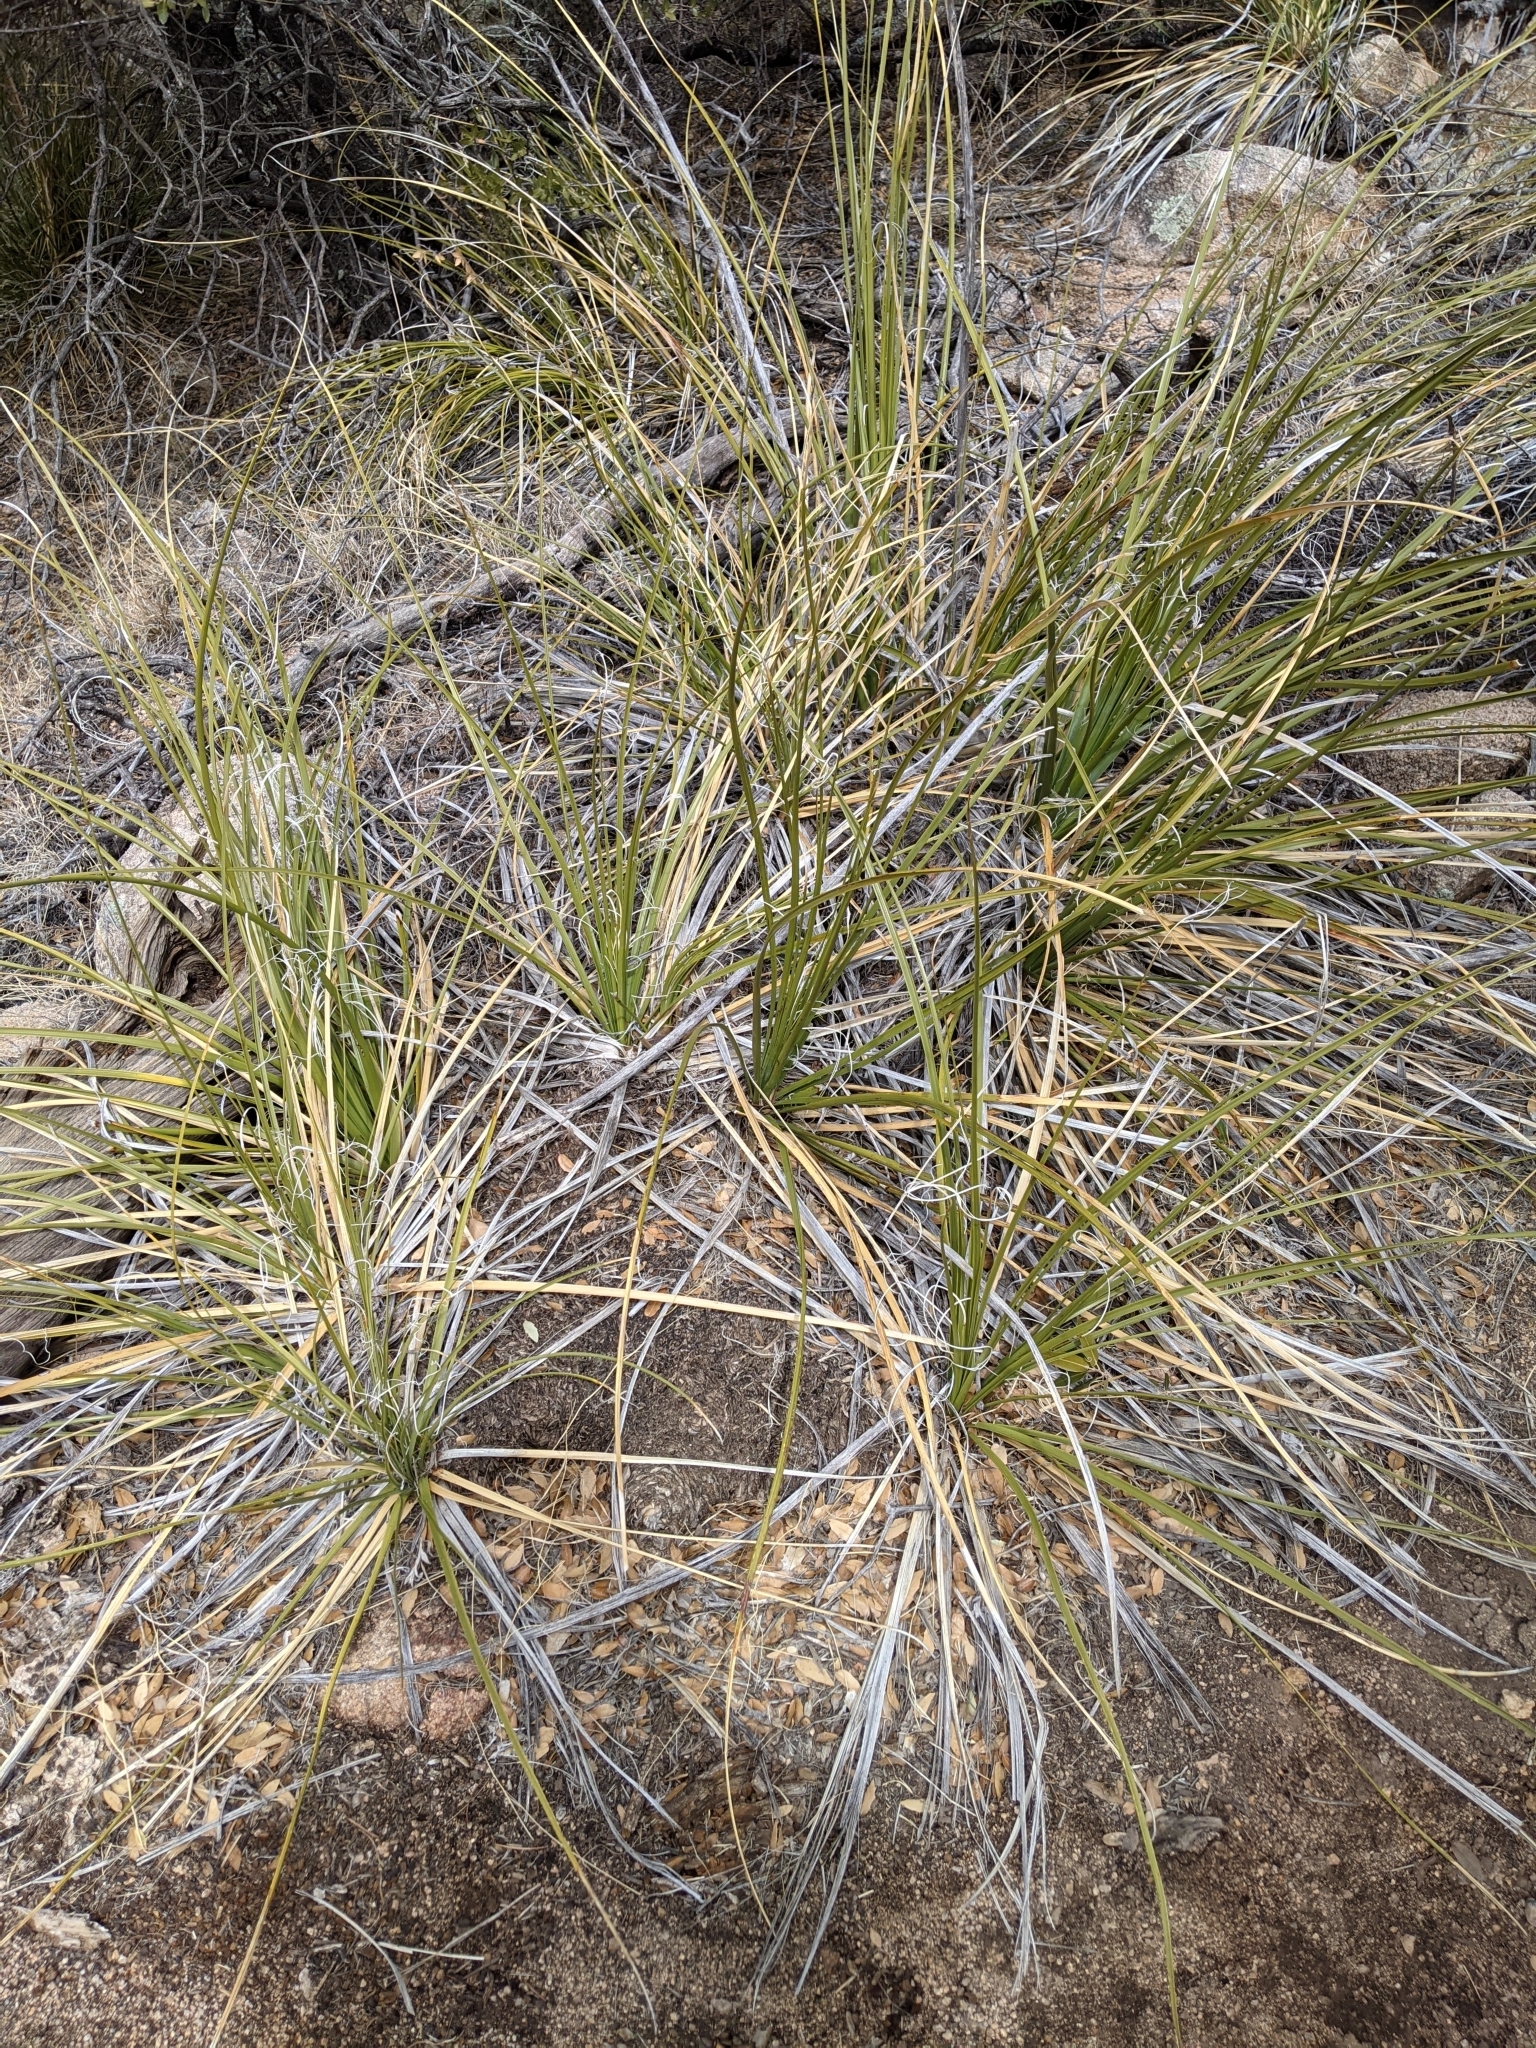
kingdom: Plantae
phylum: Tracheophyta
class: Liliopsida
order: Asparagales
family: Asparagaceae
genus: Nolina
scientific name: Nolina microcarpa
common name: Bear-grass
